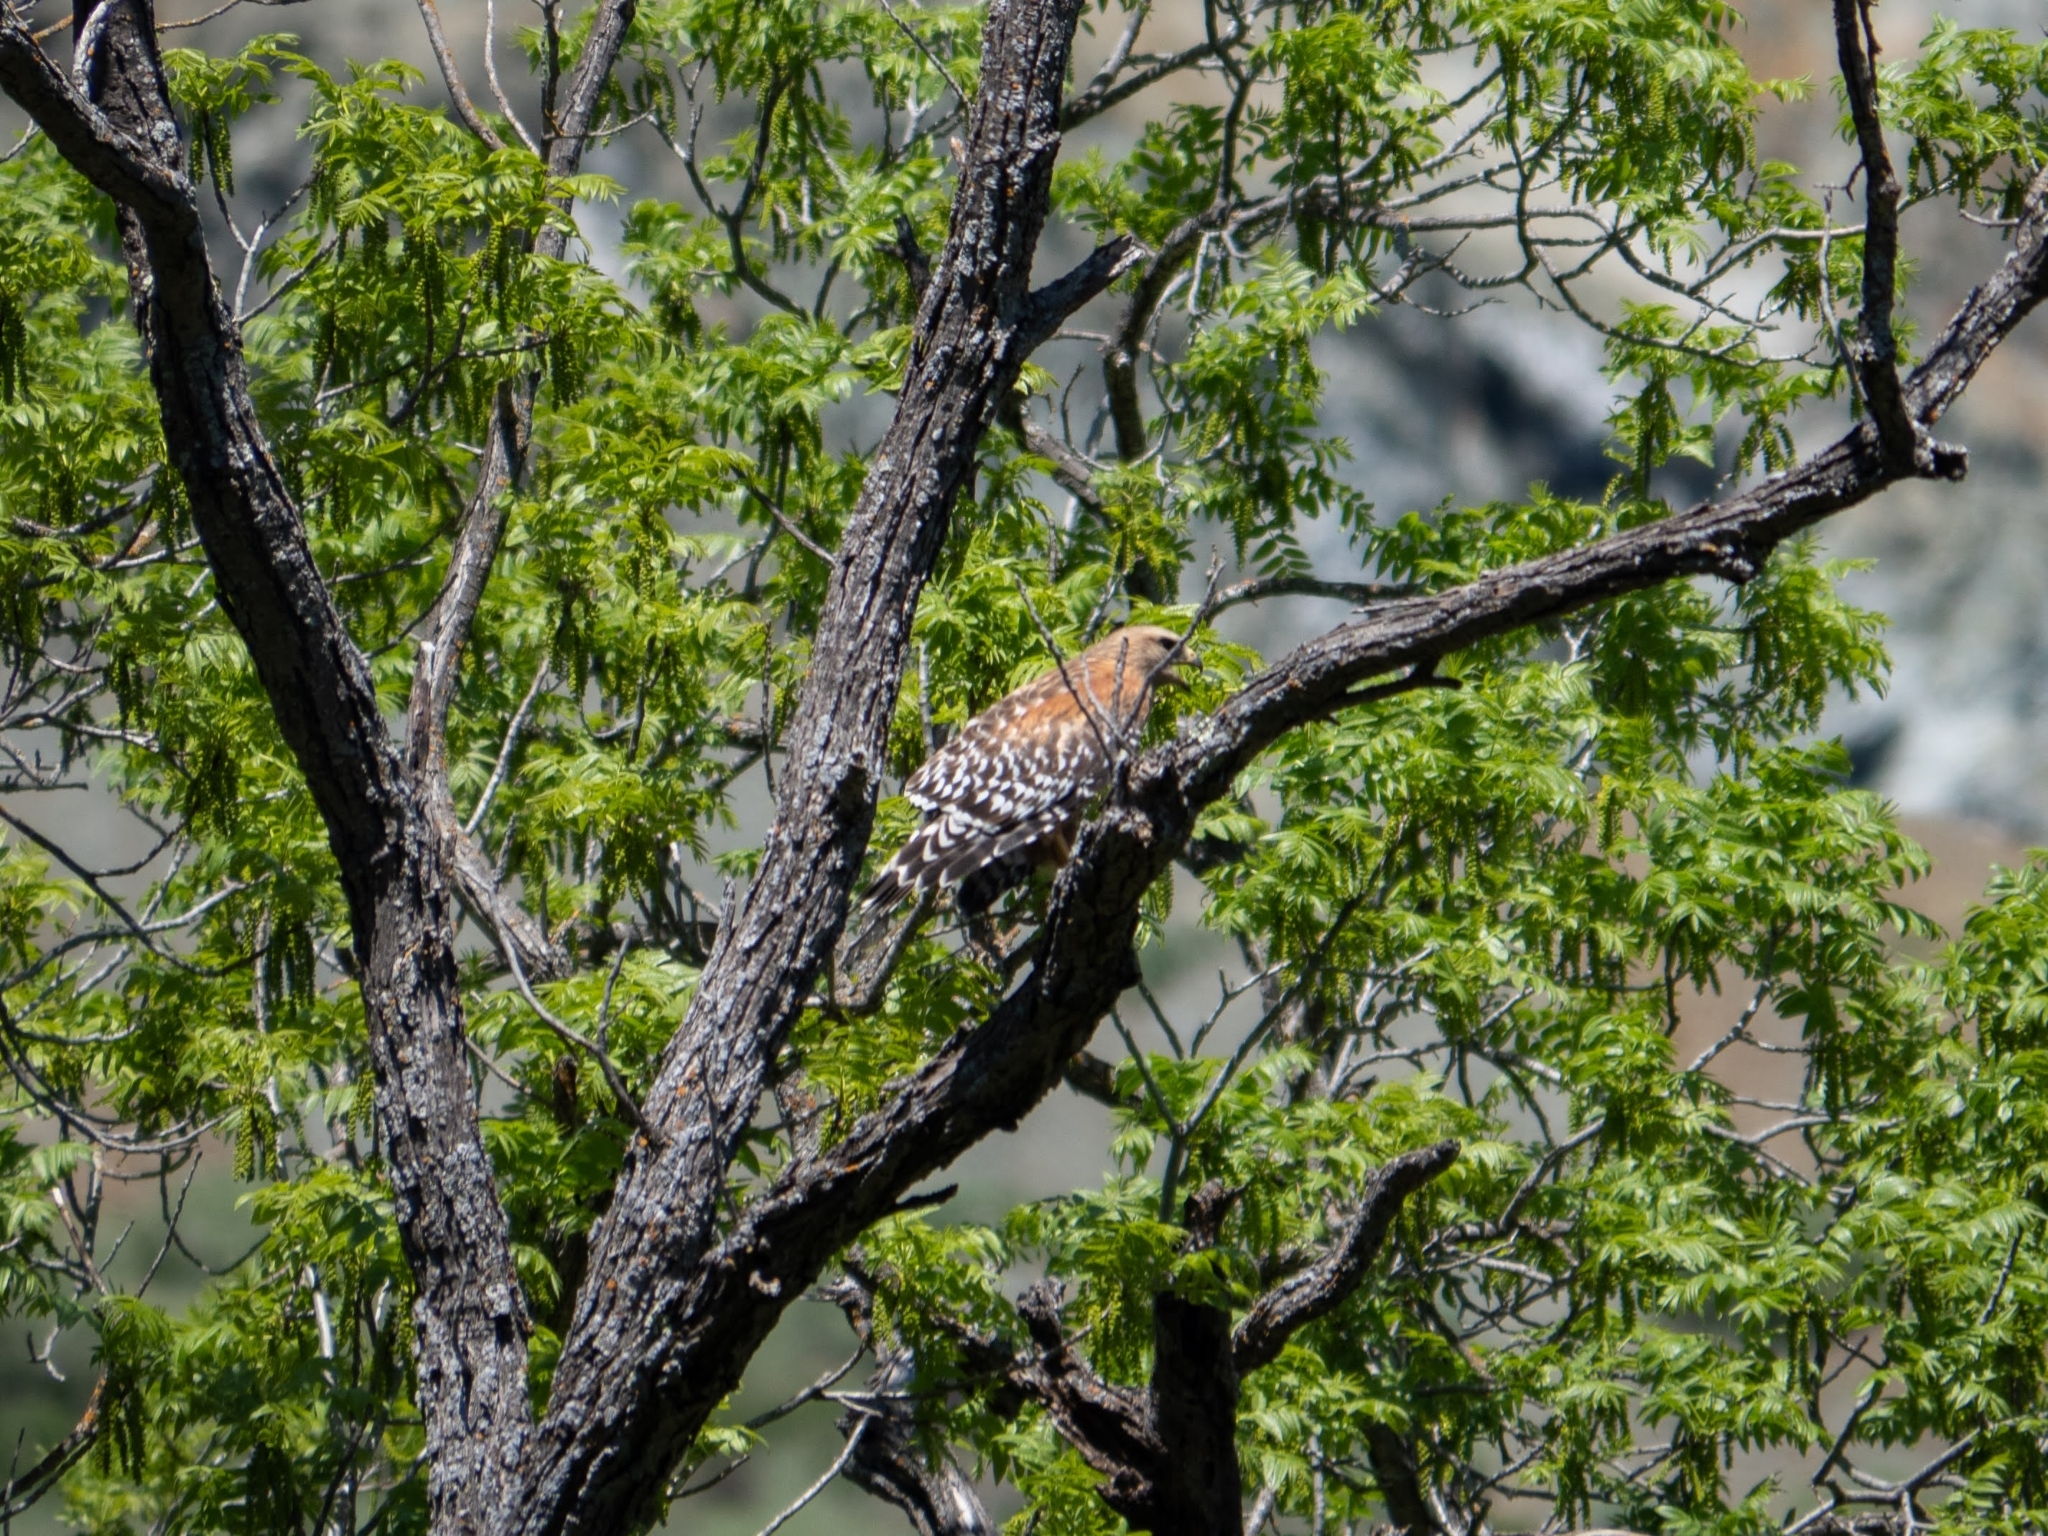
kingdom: Animalia
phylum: Chordata
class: Aves
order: Accipitriformes
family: Accipitridae
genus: Buteo
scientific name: Buteo lineatus
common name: Red-shouldered hawk
